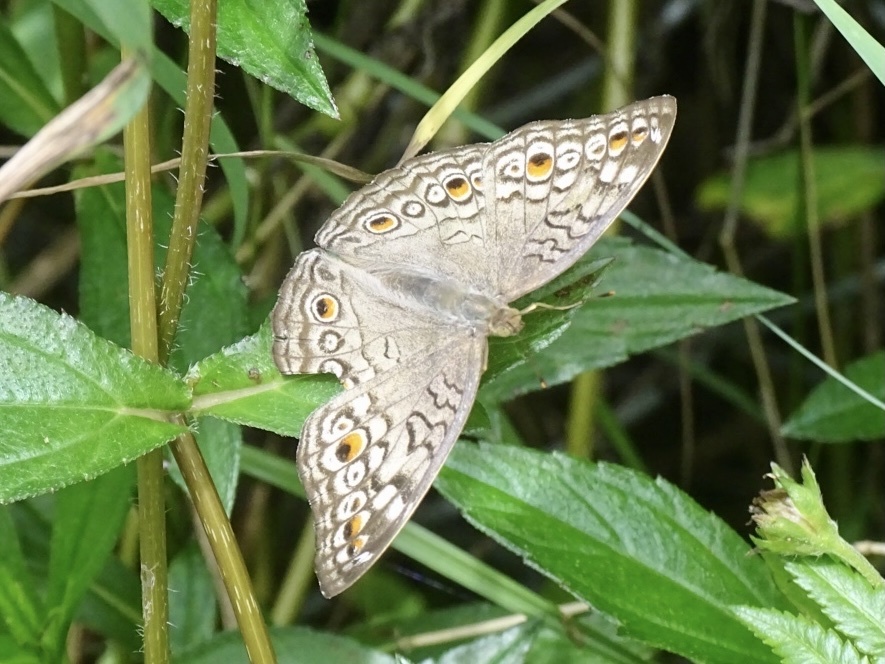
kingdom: Animalia
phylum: Arthropoda
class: Insecta
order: Lepidoptera
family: Nymphalidae
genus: Junonia
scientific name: Junonia atlites
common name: Grey pansy
